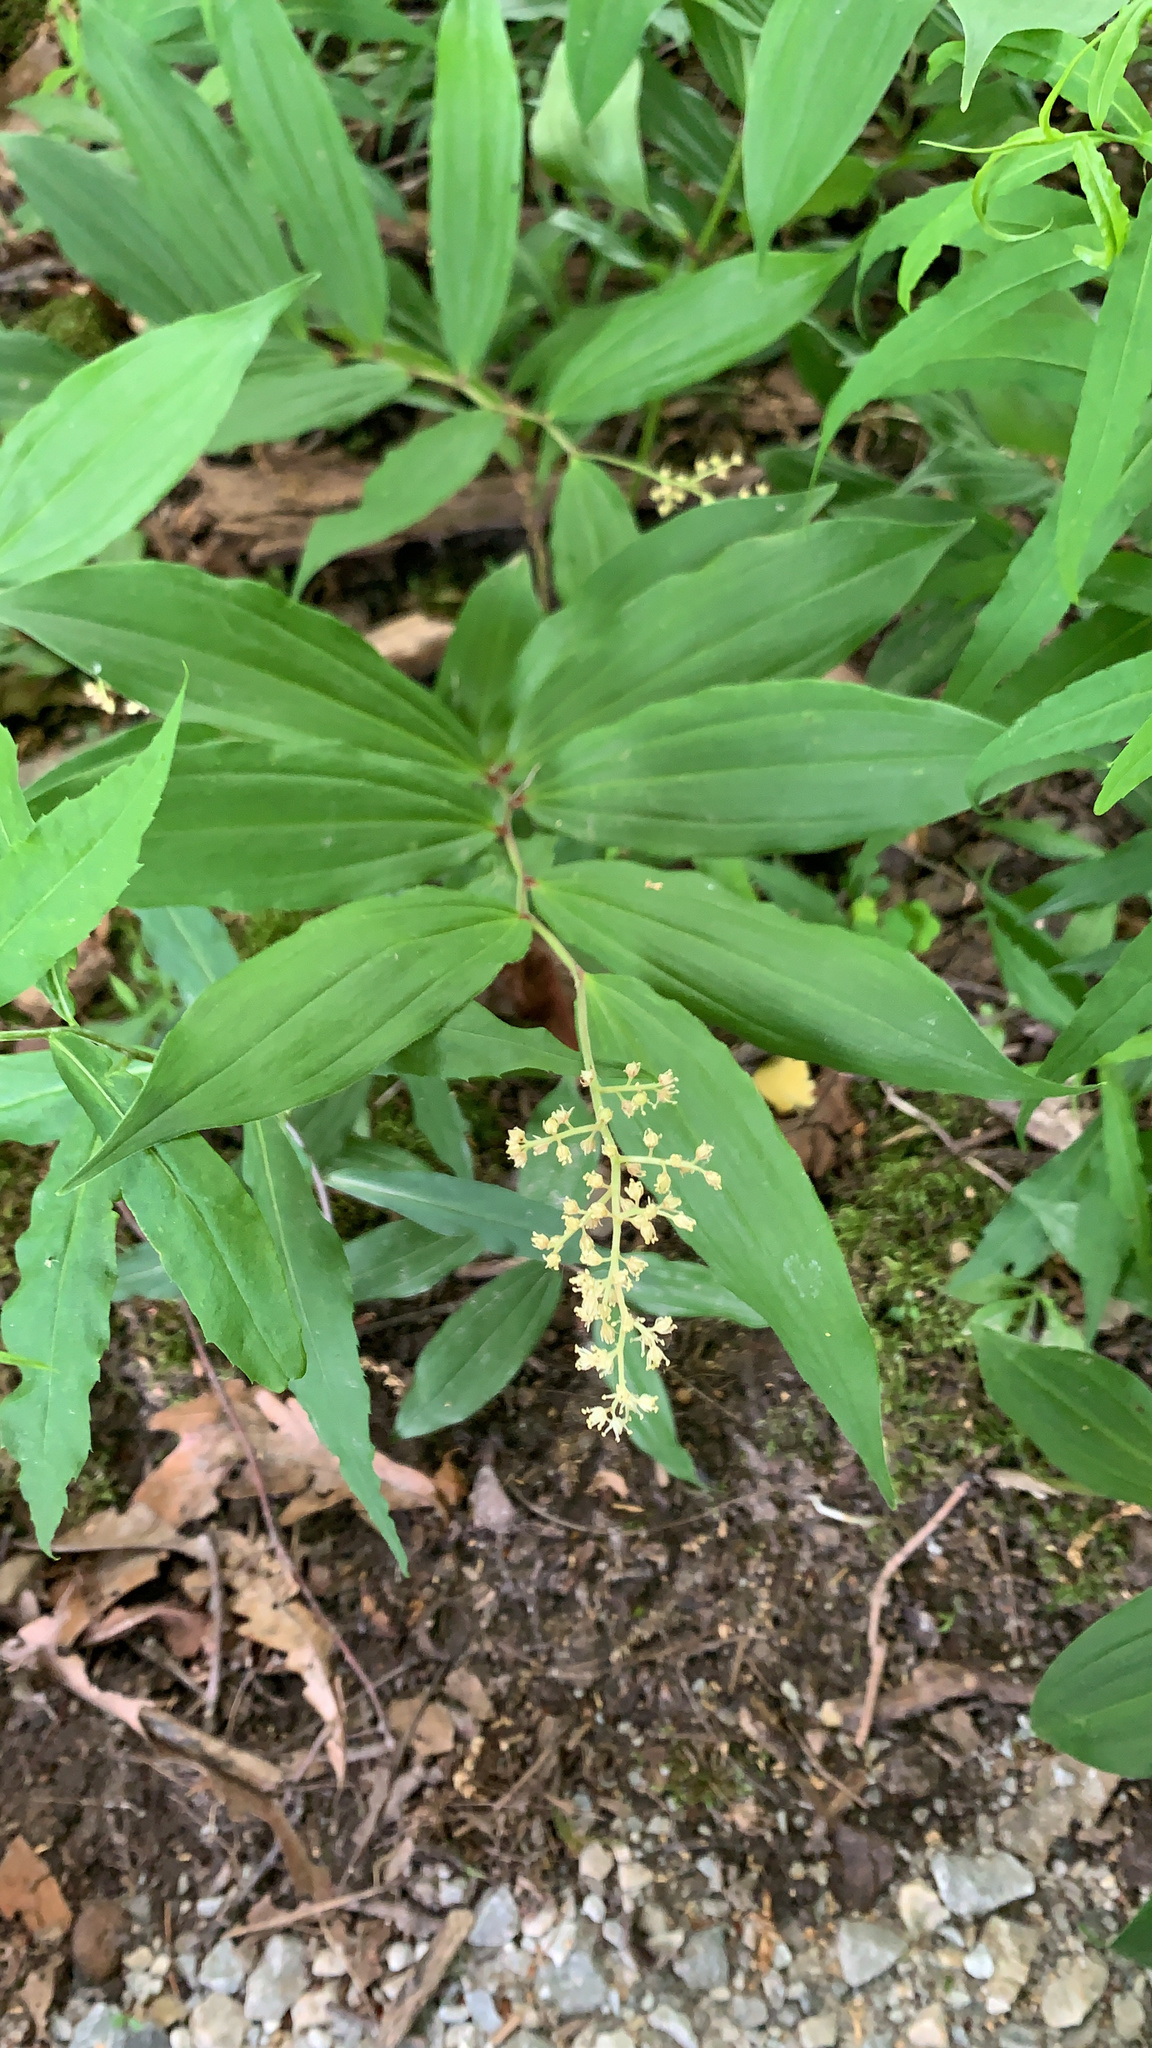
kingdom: Plantae
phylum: Tracheophyta
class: Liliopsida
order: Asparagales
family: Asparagaceae
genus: Maianthemum
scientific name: Maianthemum racemosum
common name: False spikenard
